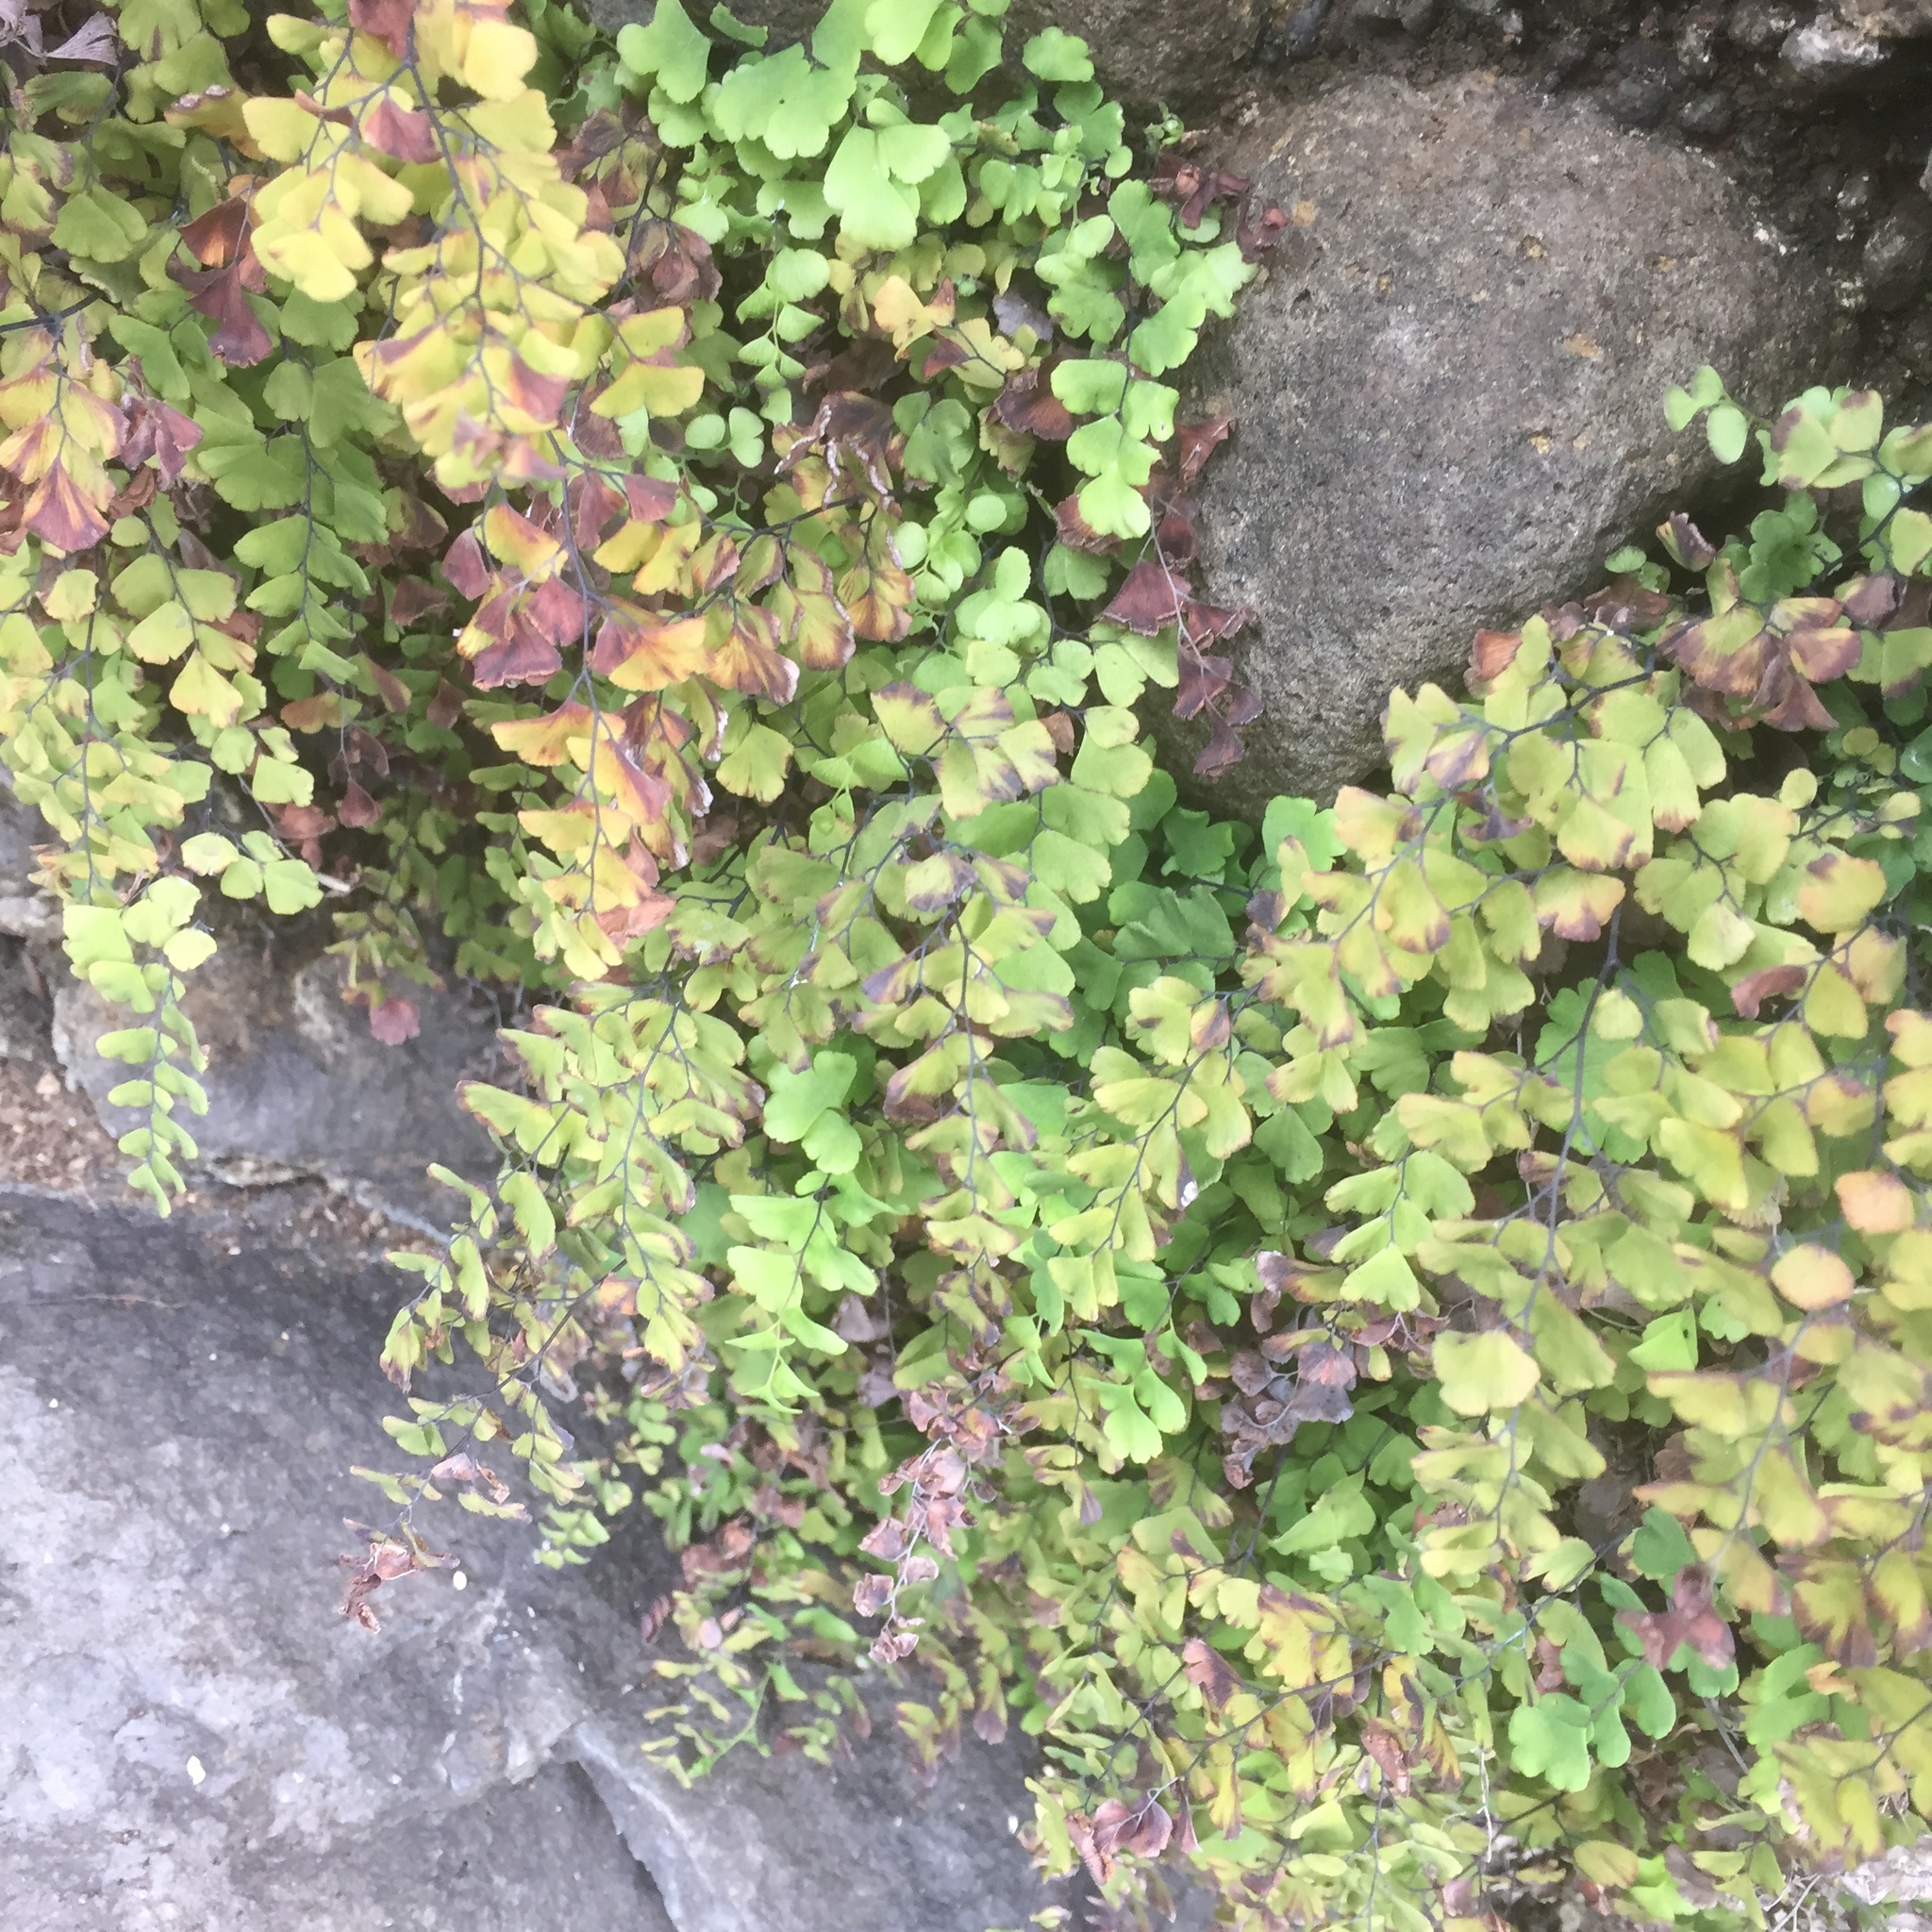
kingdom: Plantae
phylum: Tracheophyta
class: Polypodiopsida
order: Polypodiales
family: Pteridaceae
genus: Adiantum
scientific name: Adiantum capillus-veneris
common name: Maidenhair fern
